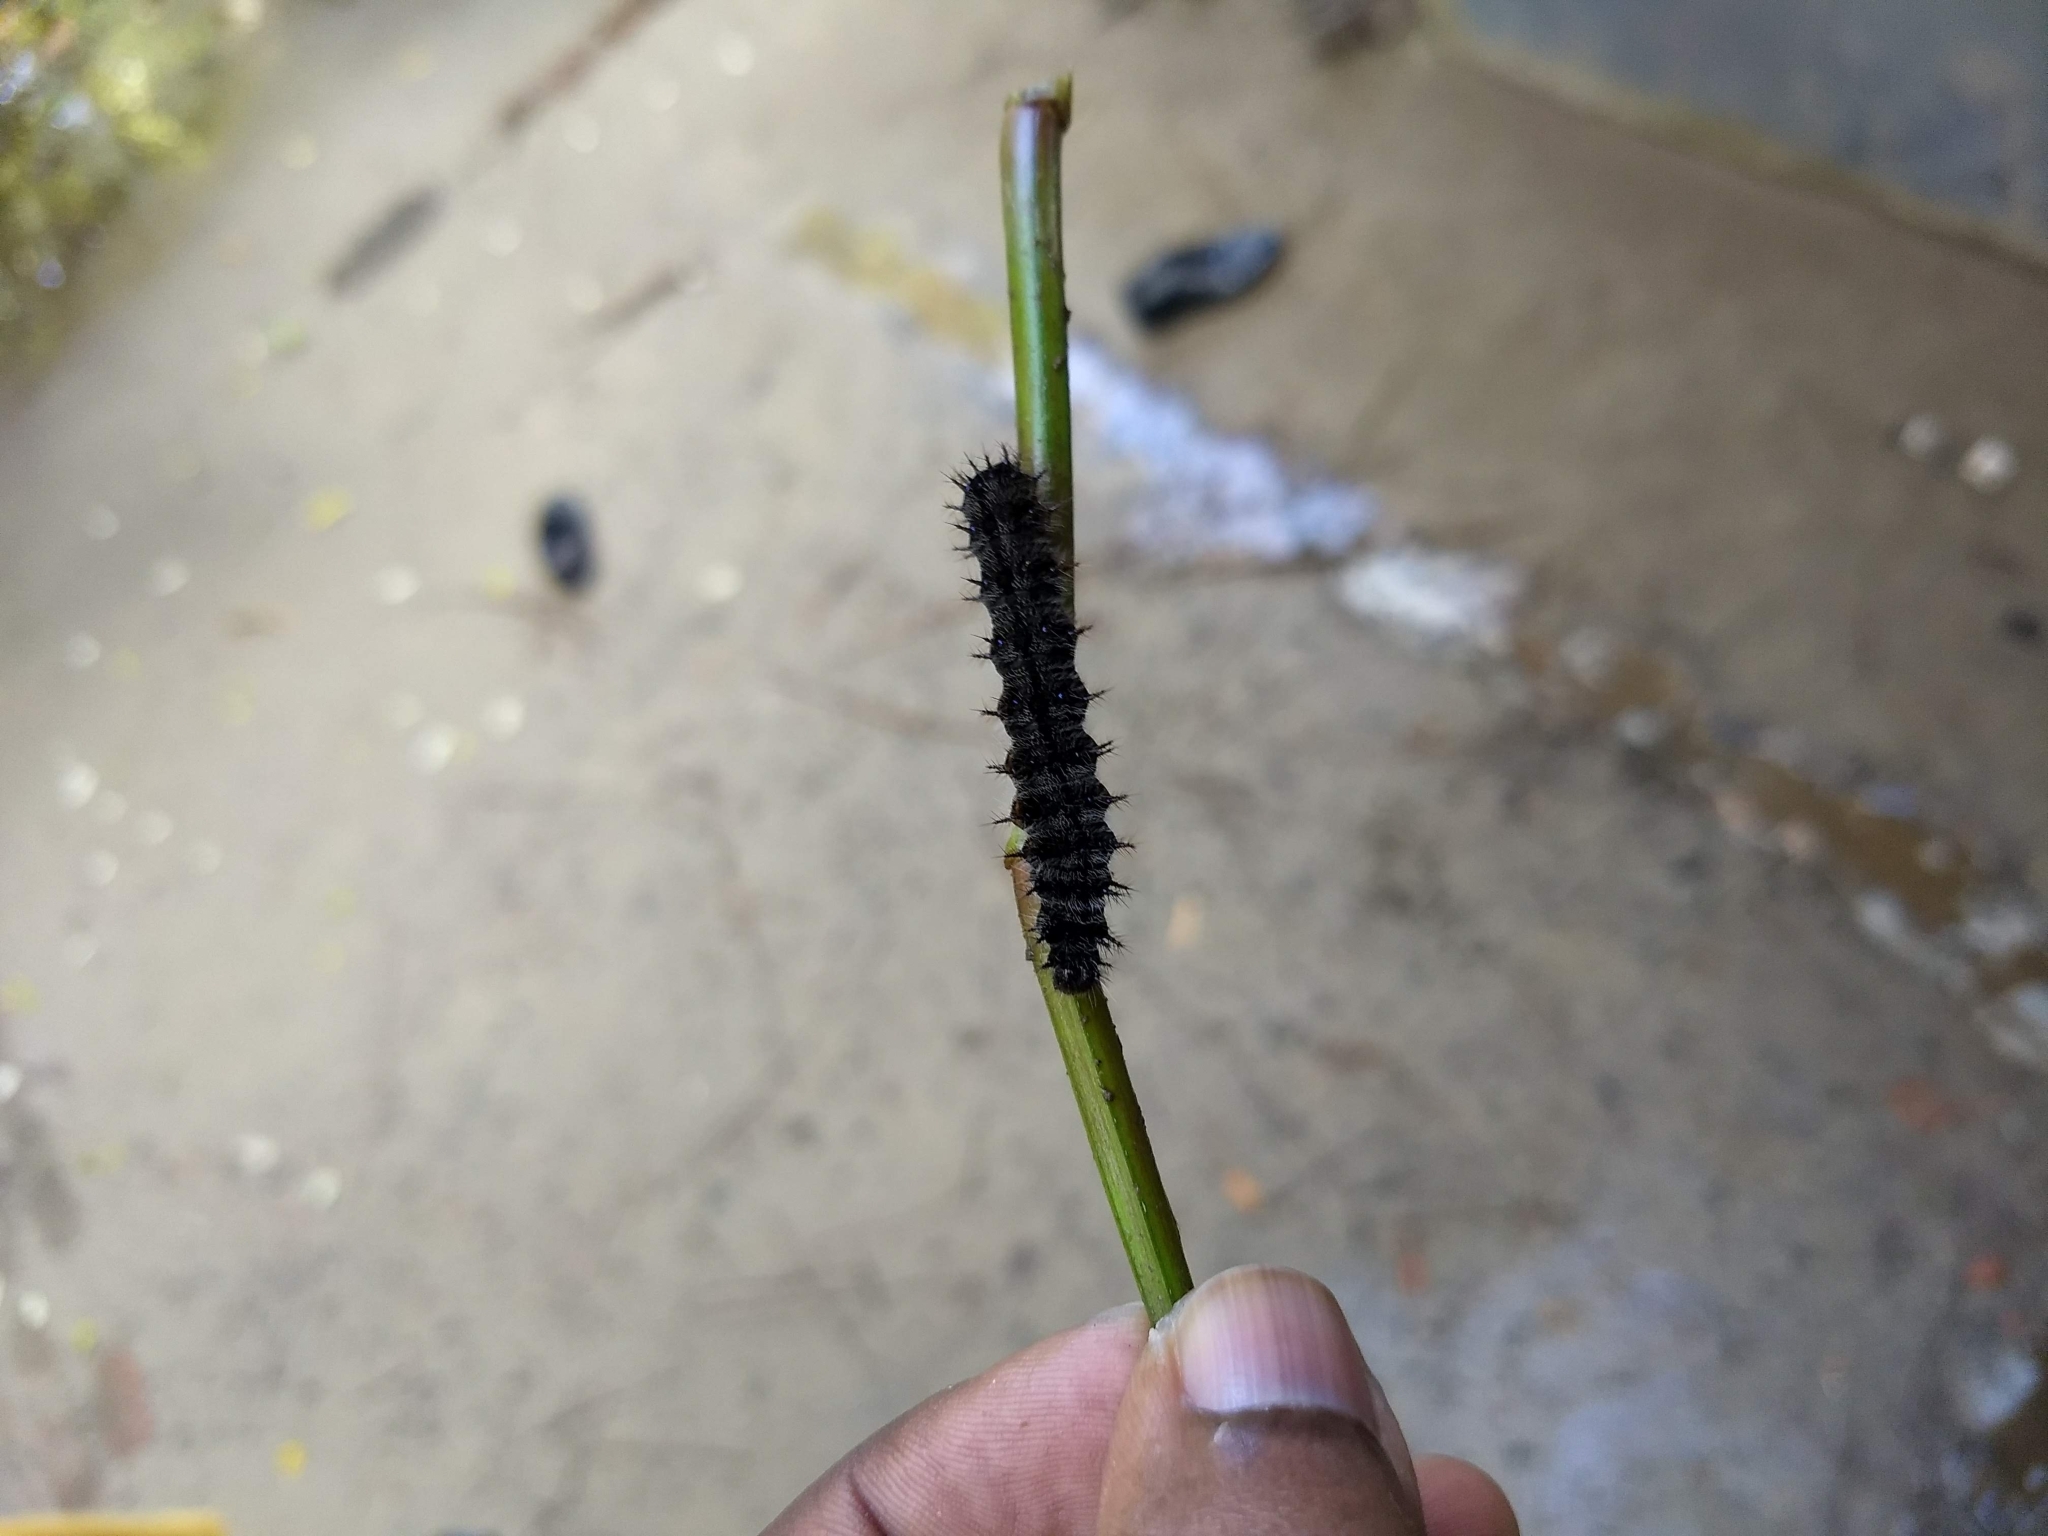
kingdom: Animalia
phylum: Arthropoda
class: Insecta
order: Lepidoptera
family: Nymphalidae
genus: Junonia
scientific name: Junonia iphita
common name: Chocolate pansy
